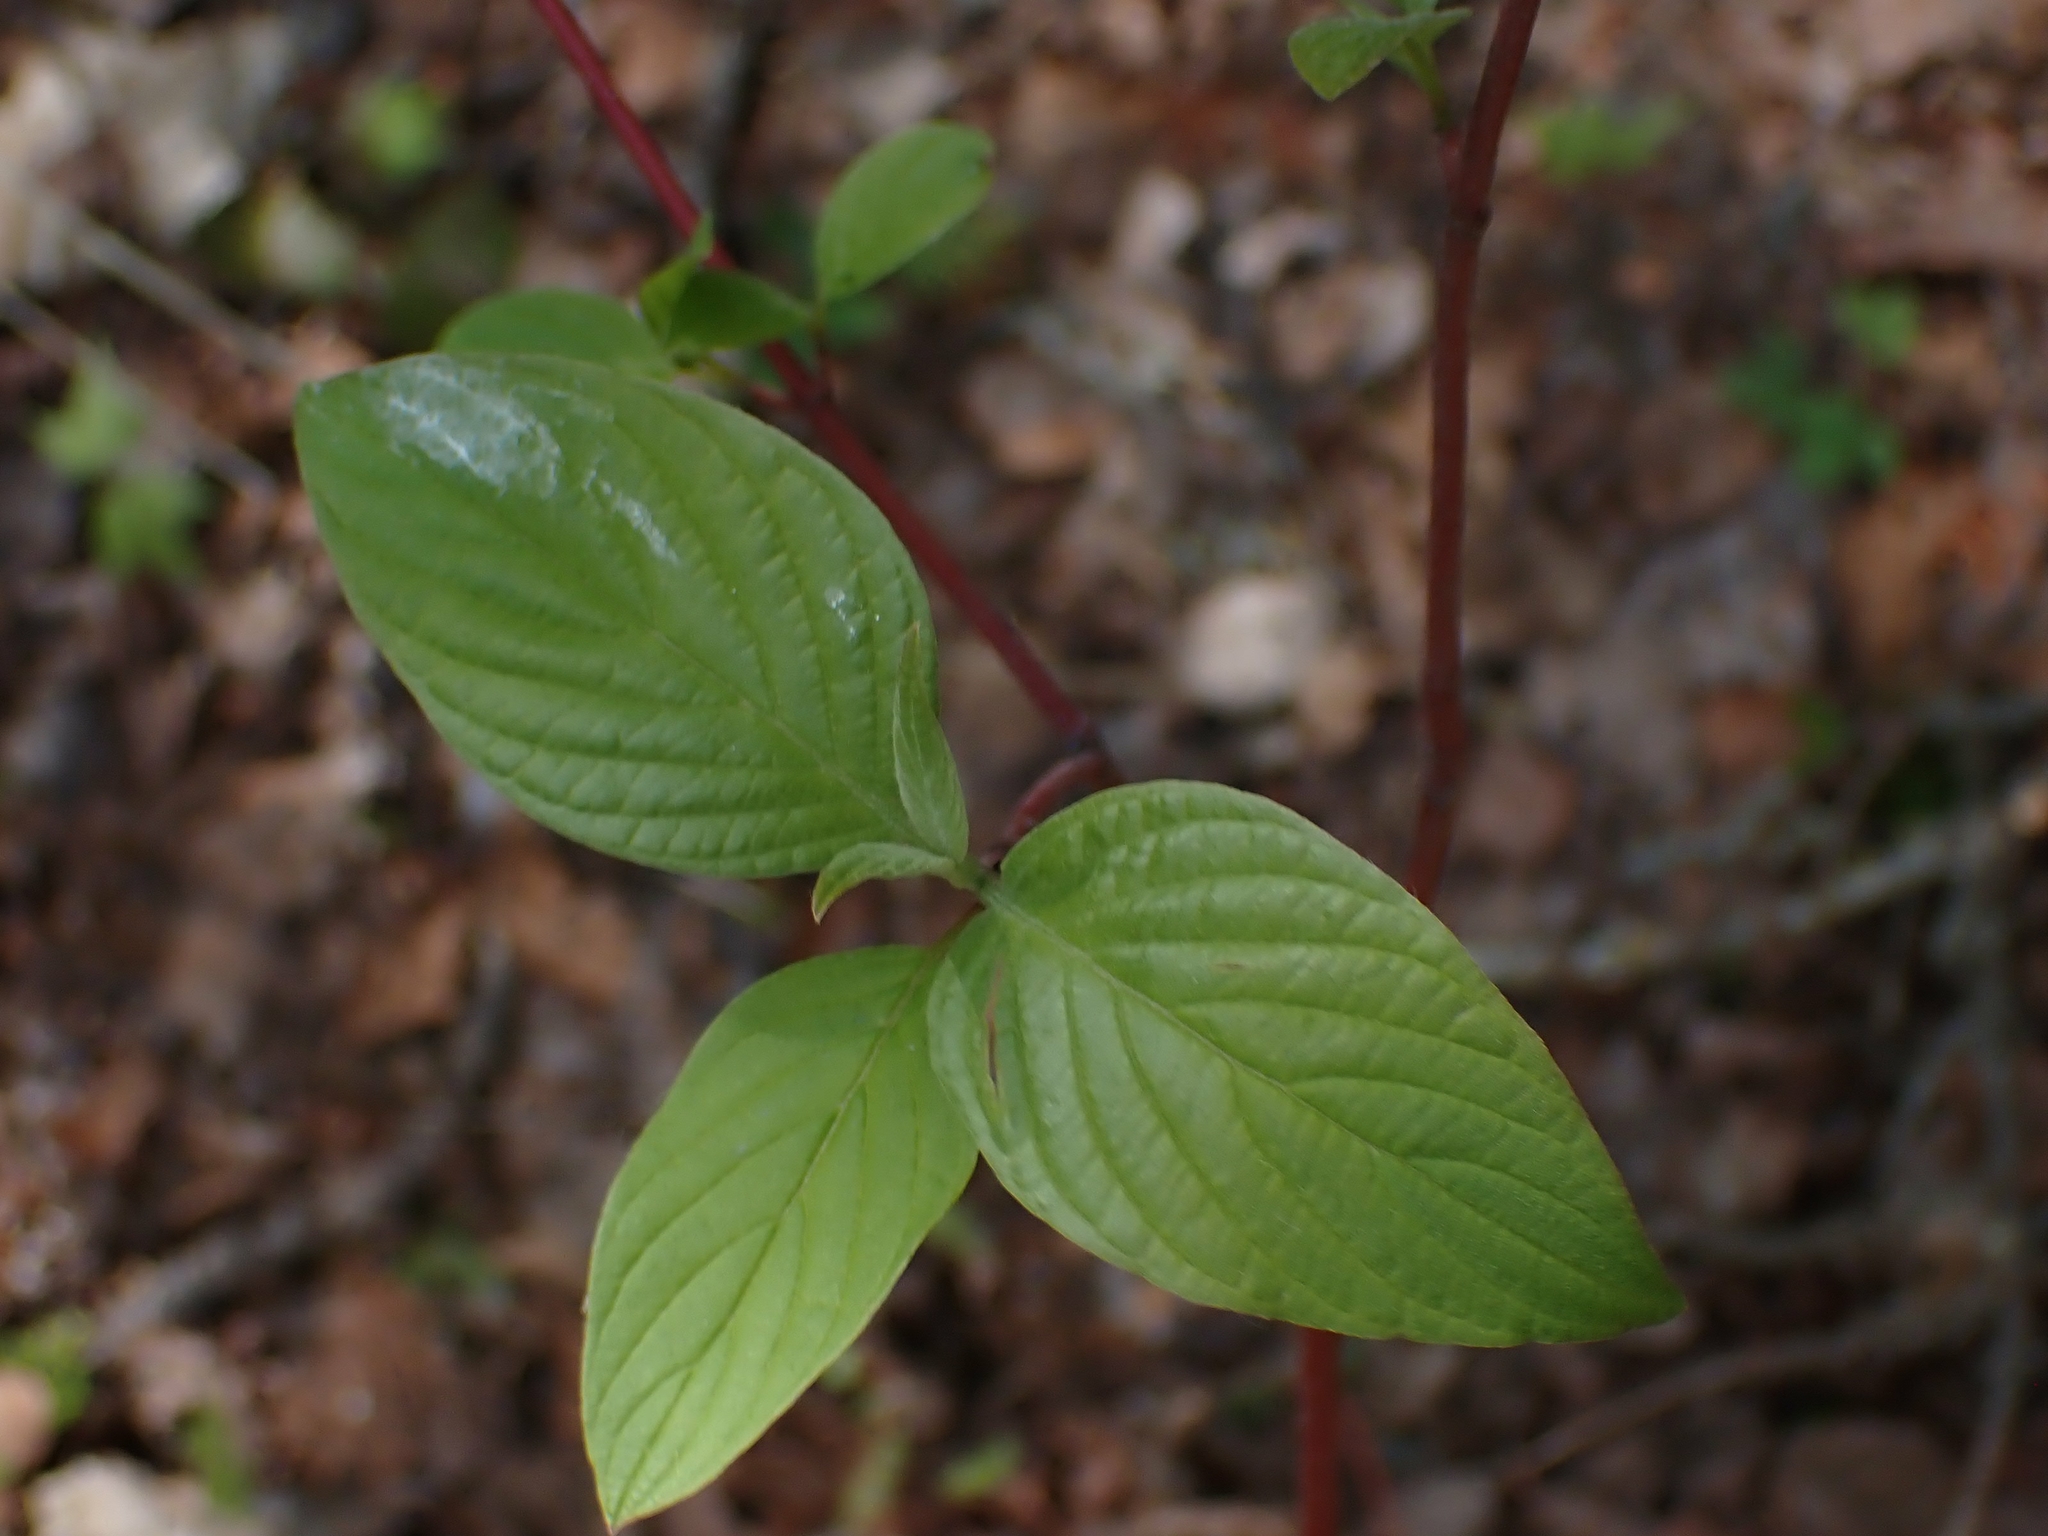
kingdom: Plantae
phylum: Tracheophyta
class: Magnoliopsida
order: Cornales
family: Cornaceae
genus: Cornus
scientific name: Cornus sericea
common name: Red-osier dogwood
